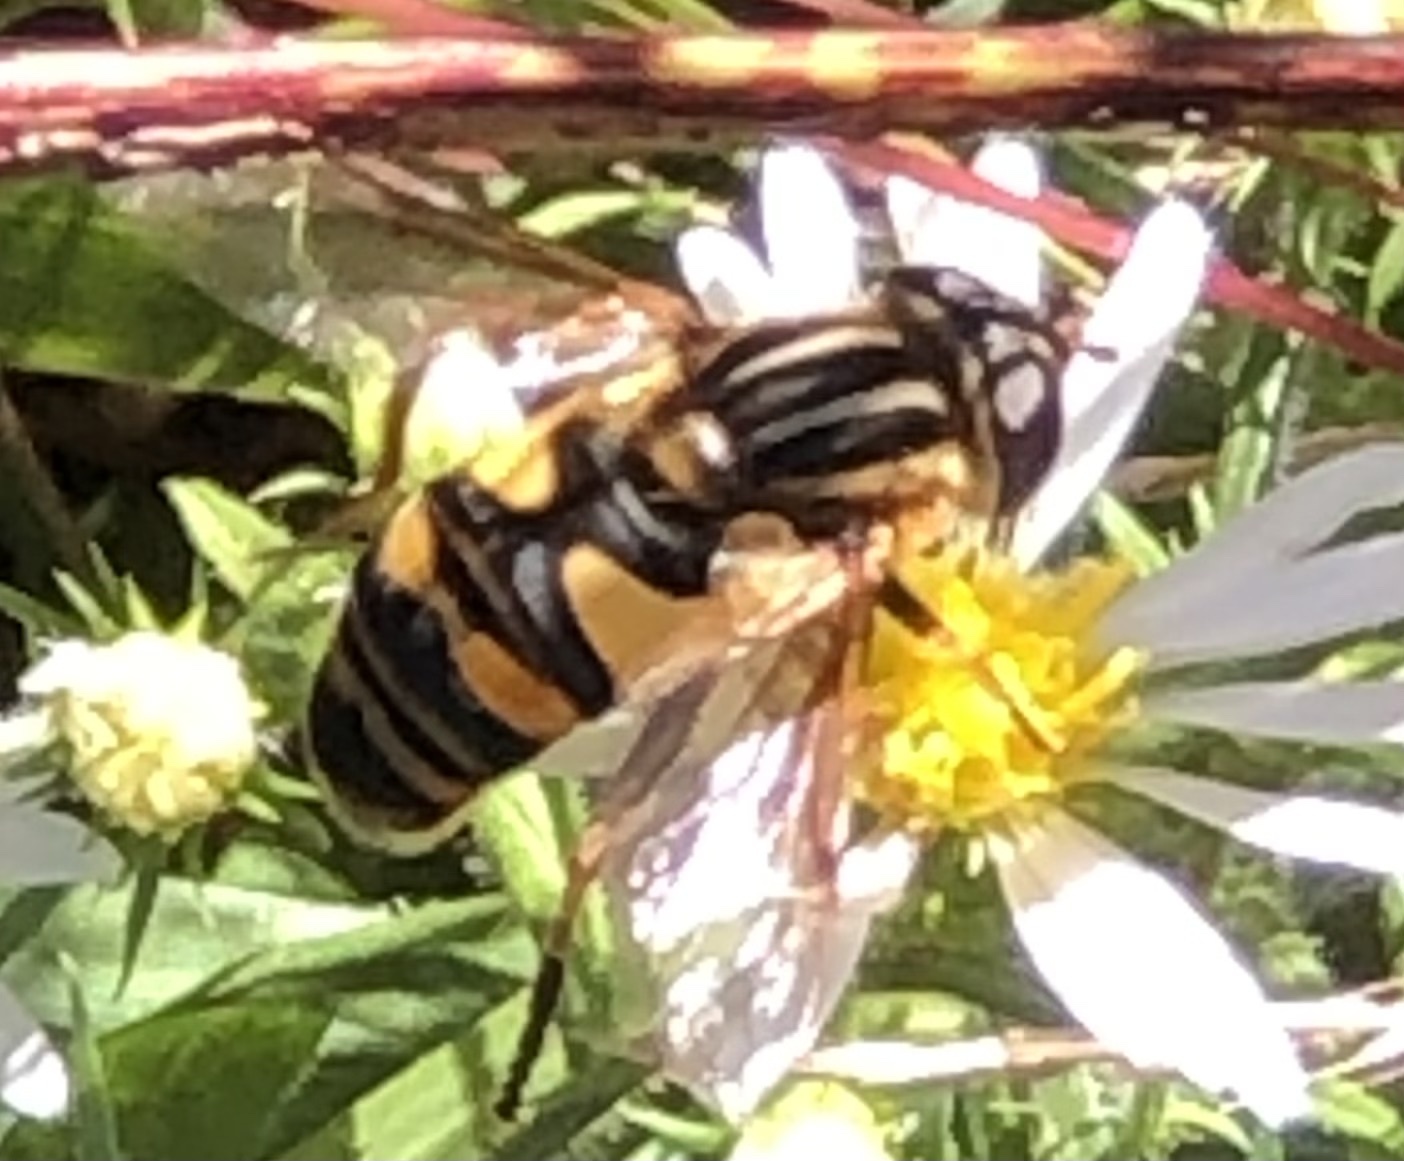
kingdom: Animalia
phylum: Arthropoda
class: Insecta
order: Diptera
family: Syrphidae
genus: Helophilus
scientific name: Helophilus fasciatus
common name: Narrow-headed marsh fly
